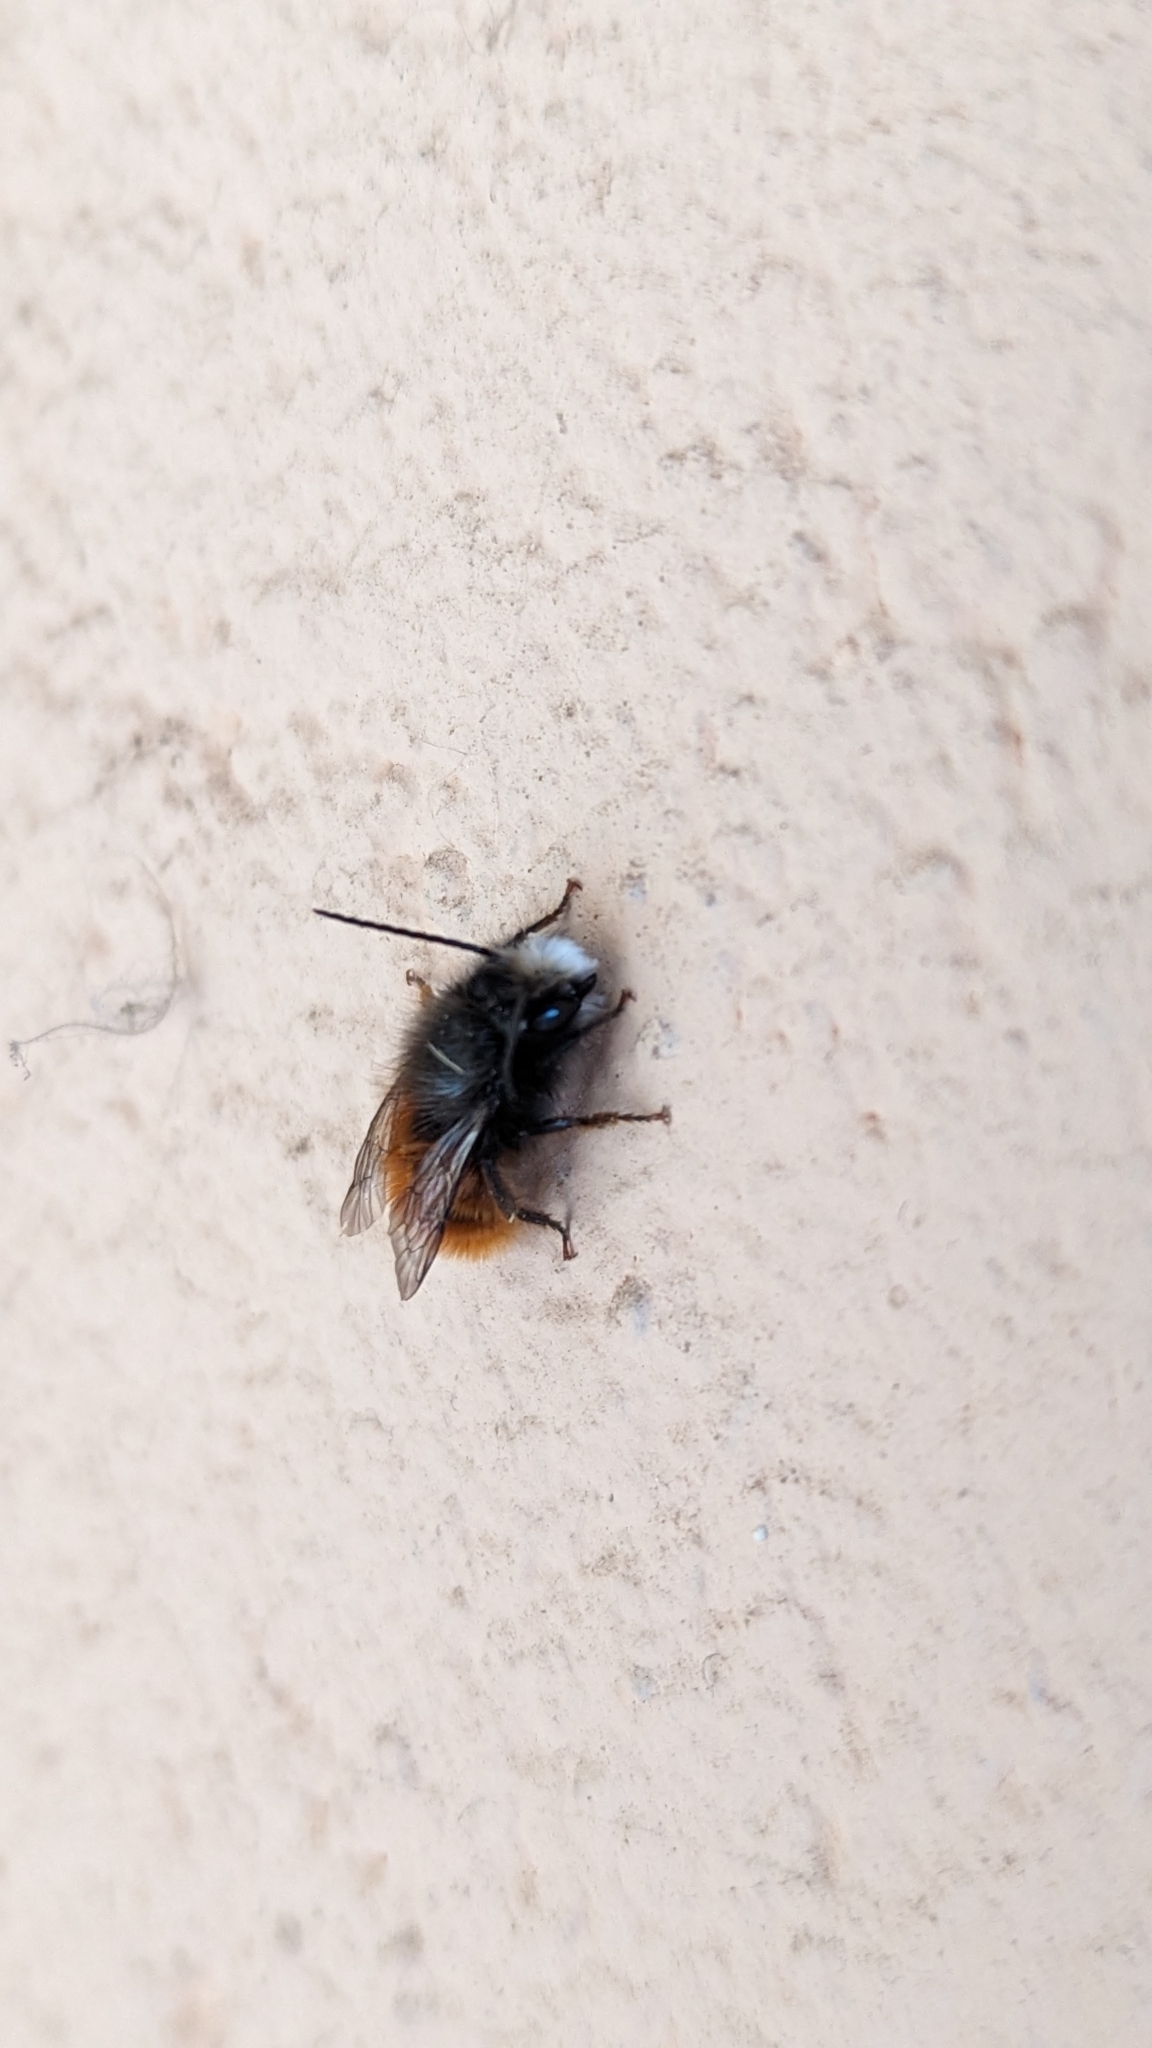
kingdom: Animalia
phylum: Arthropoda
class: Insecta
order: Hymenoptera
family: Megachilidae
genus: Osmia
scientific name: Osmia cornuta
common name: Mason bee
